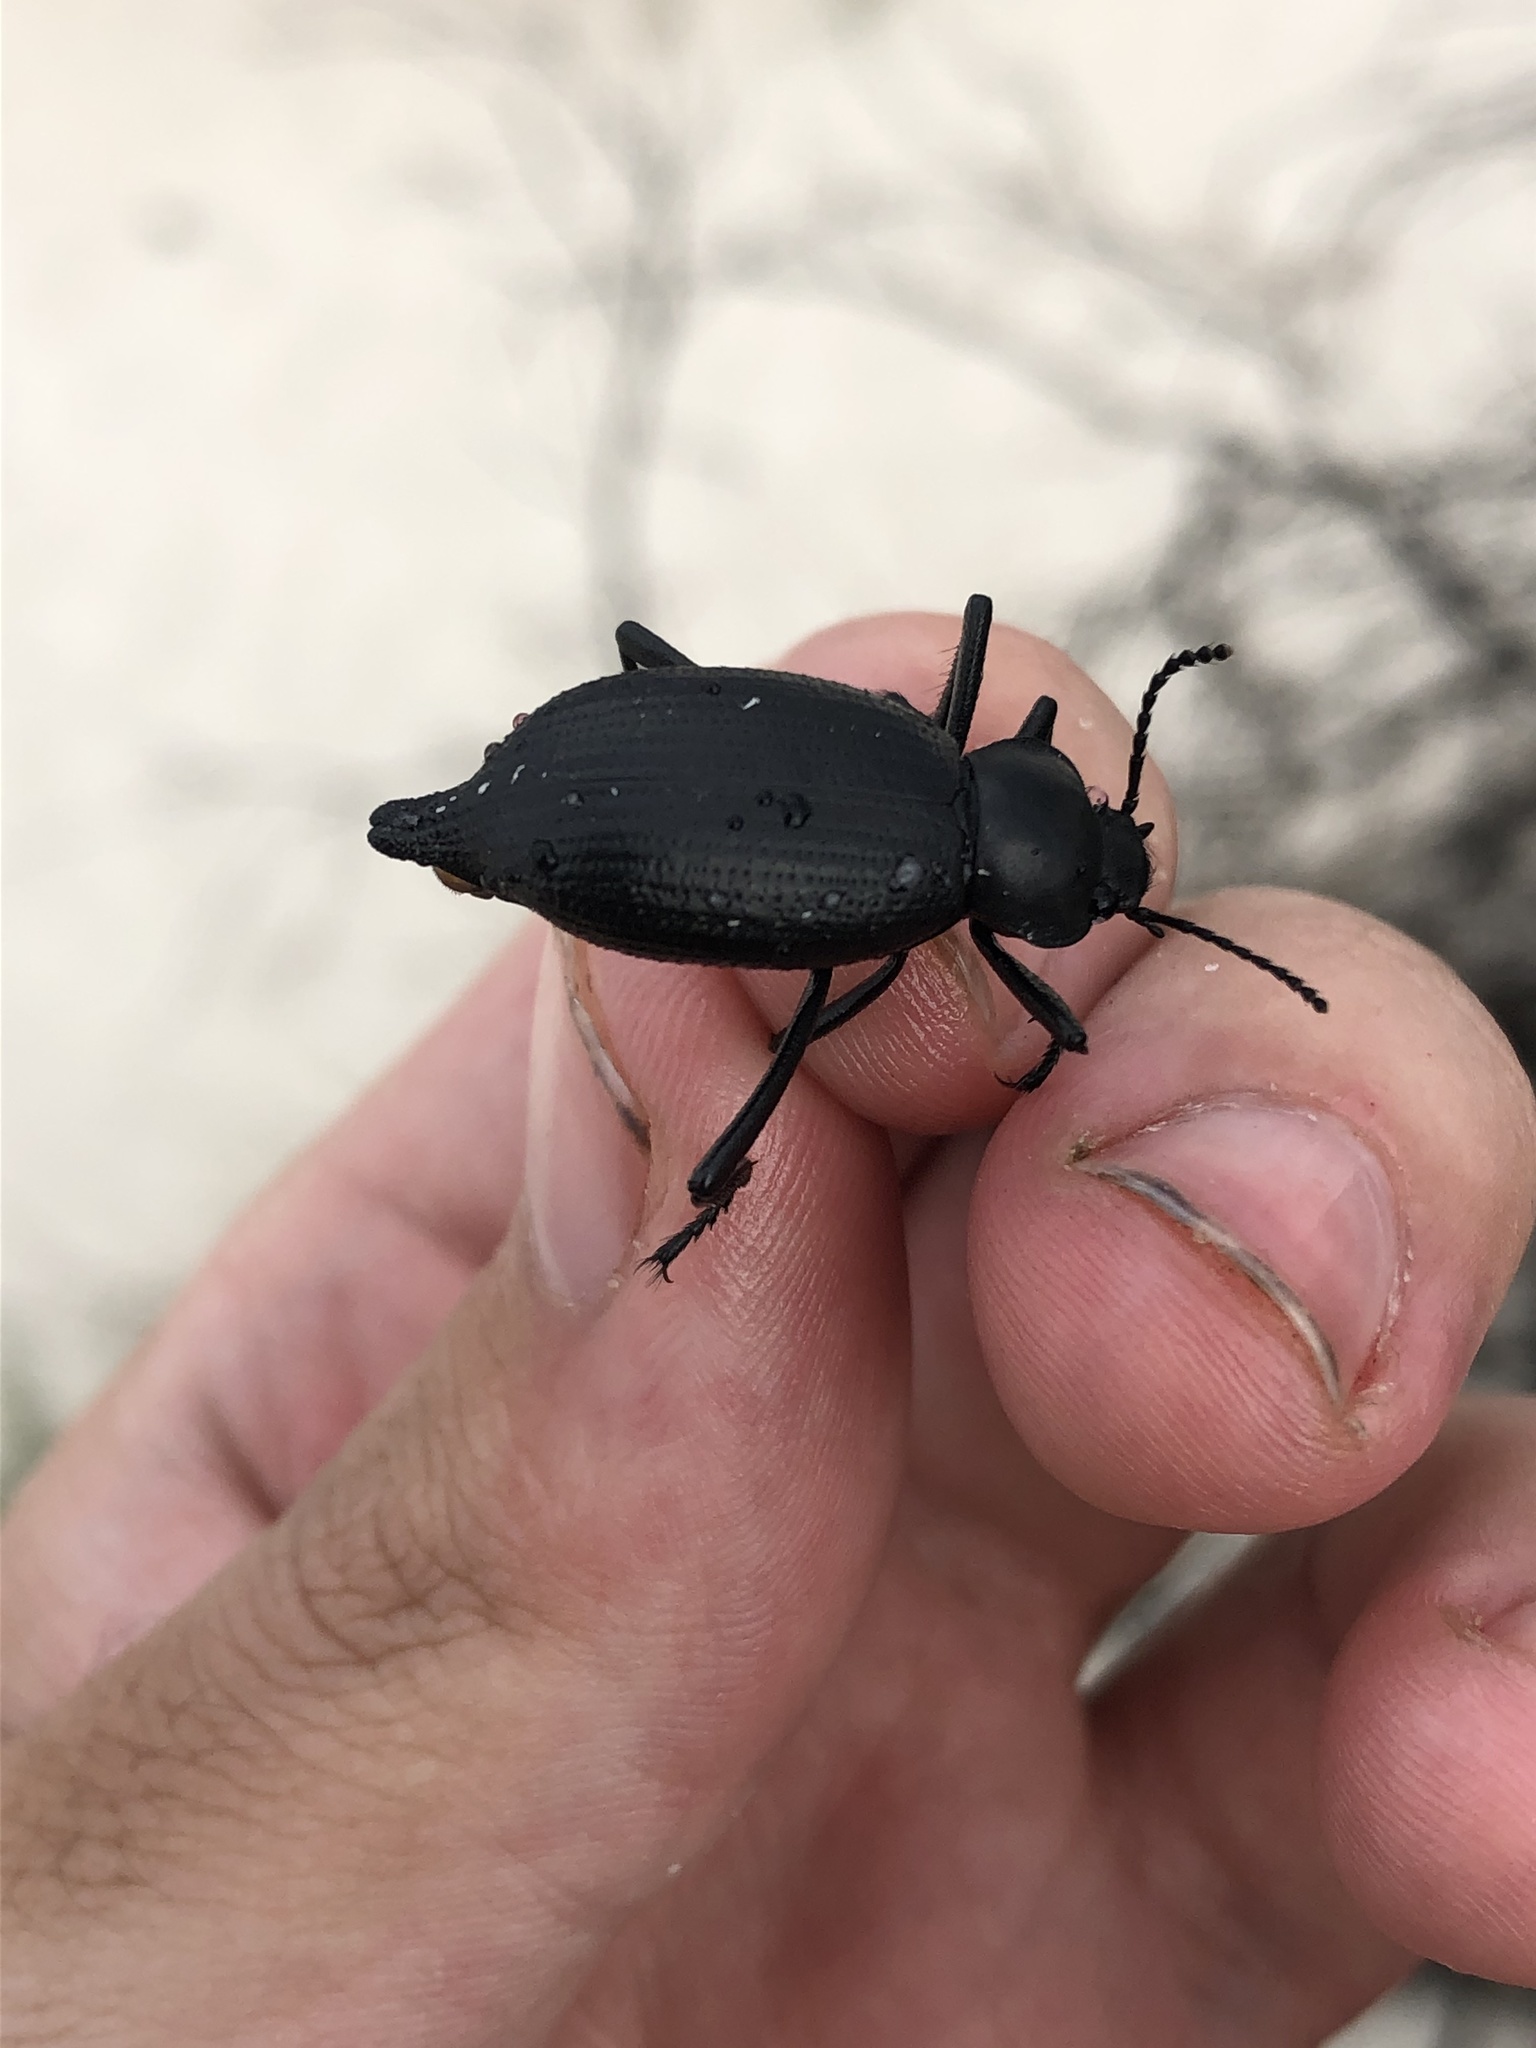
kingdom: Animalia
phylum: Arthropoda
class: Insecta
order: Coleoptera
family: Tenebrionidae
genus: Eleodes
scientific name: Eleodes caudifera
